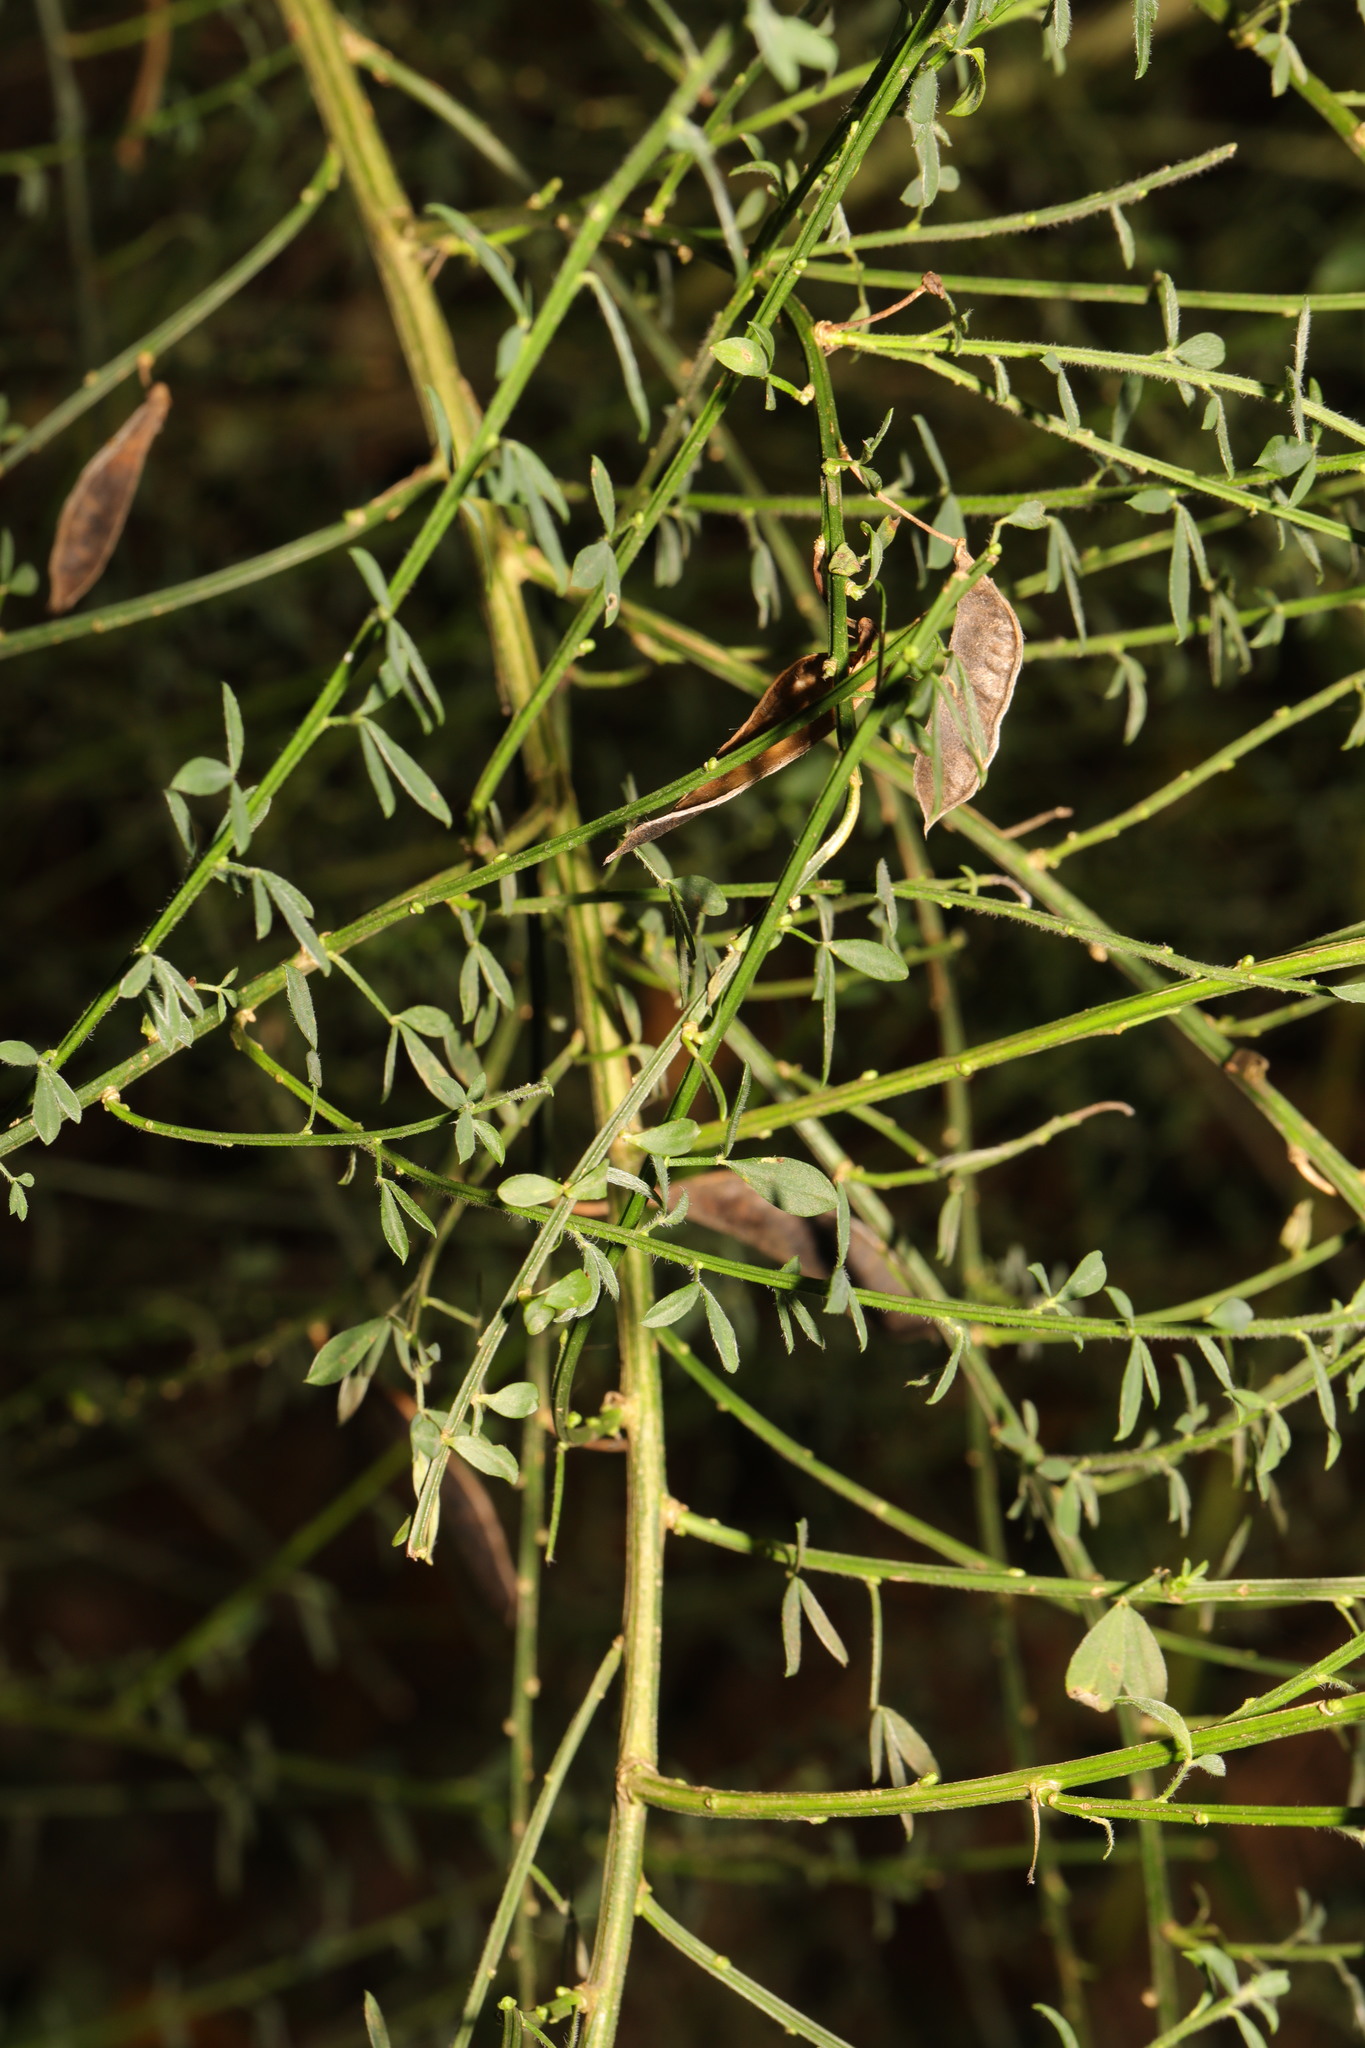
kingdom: Plantae
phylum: Tracheophyta
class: Magnoliopsida
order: Fabales
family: Fabaceae
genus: Cytisus
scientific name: Cytisus scoparius
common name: Scotch broom
